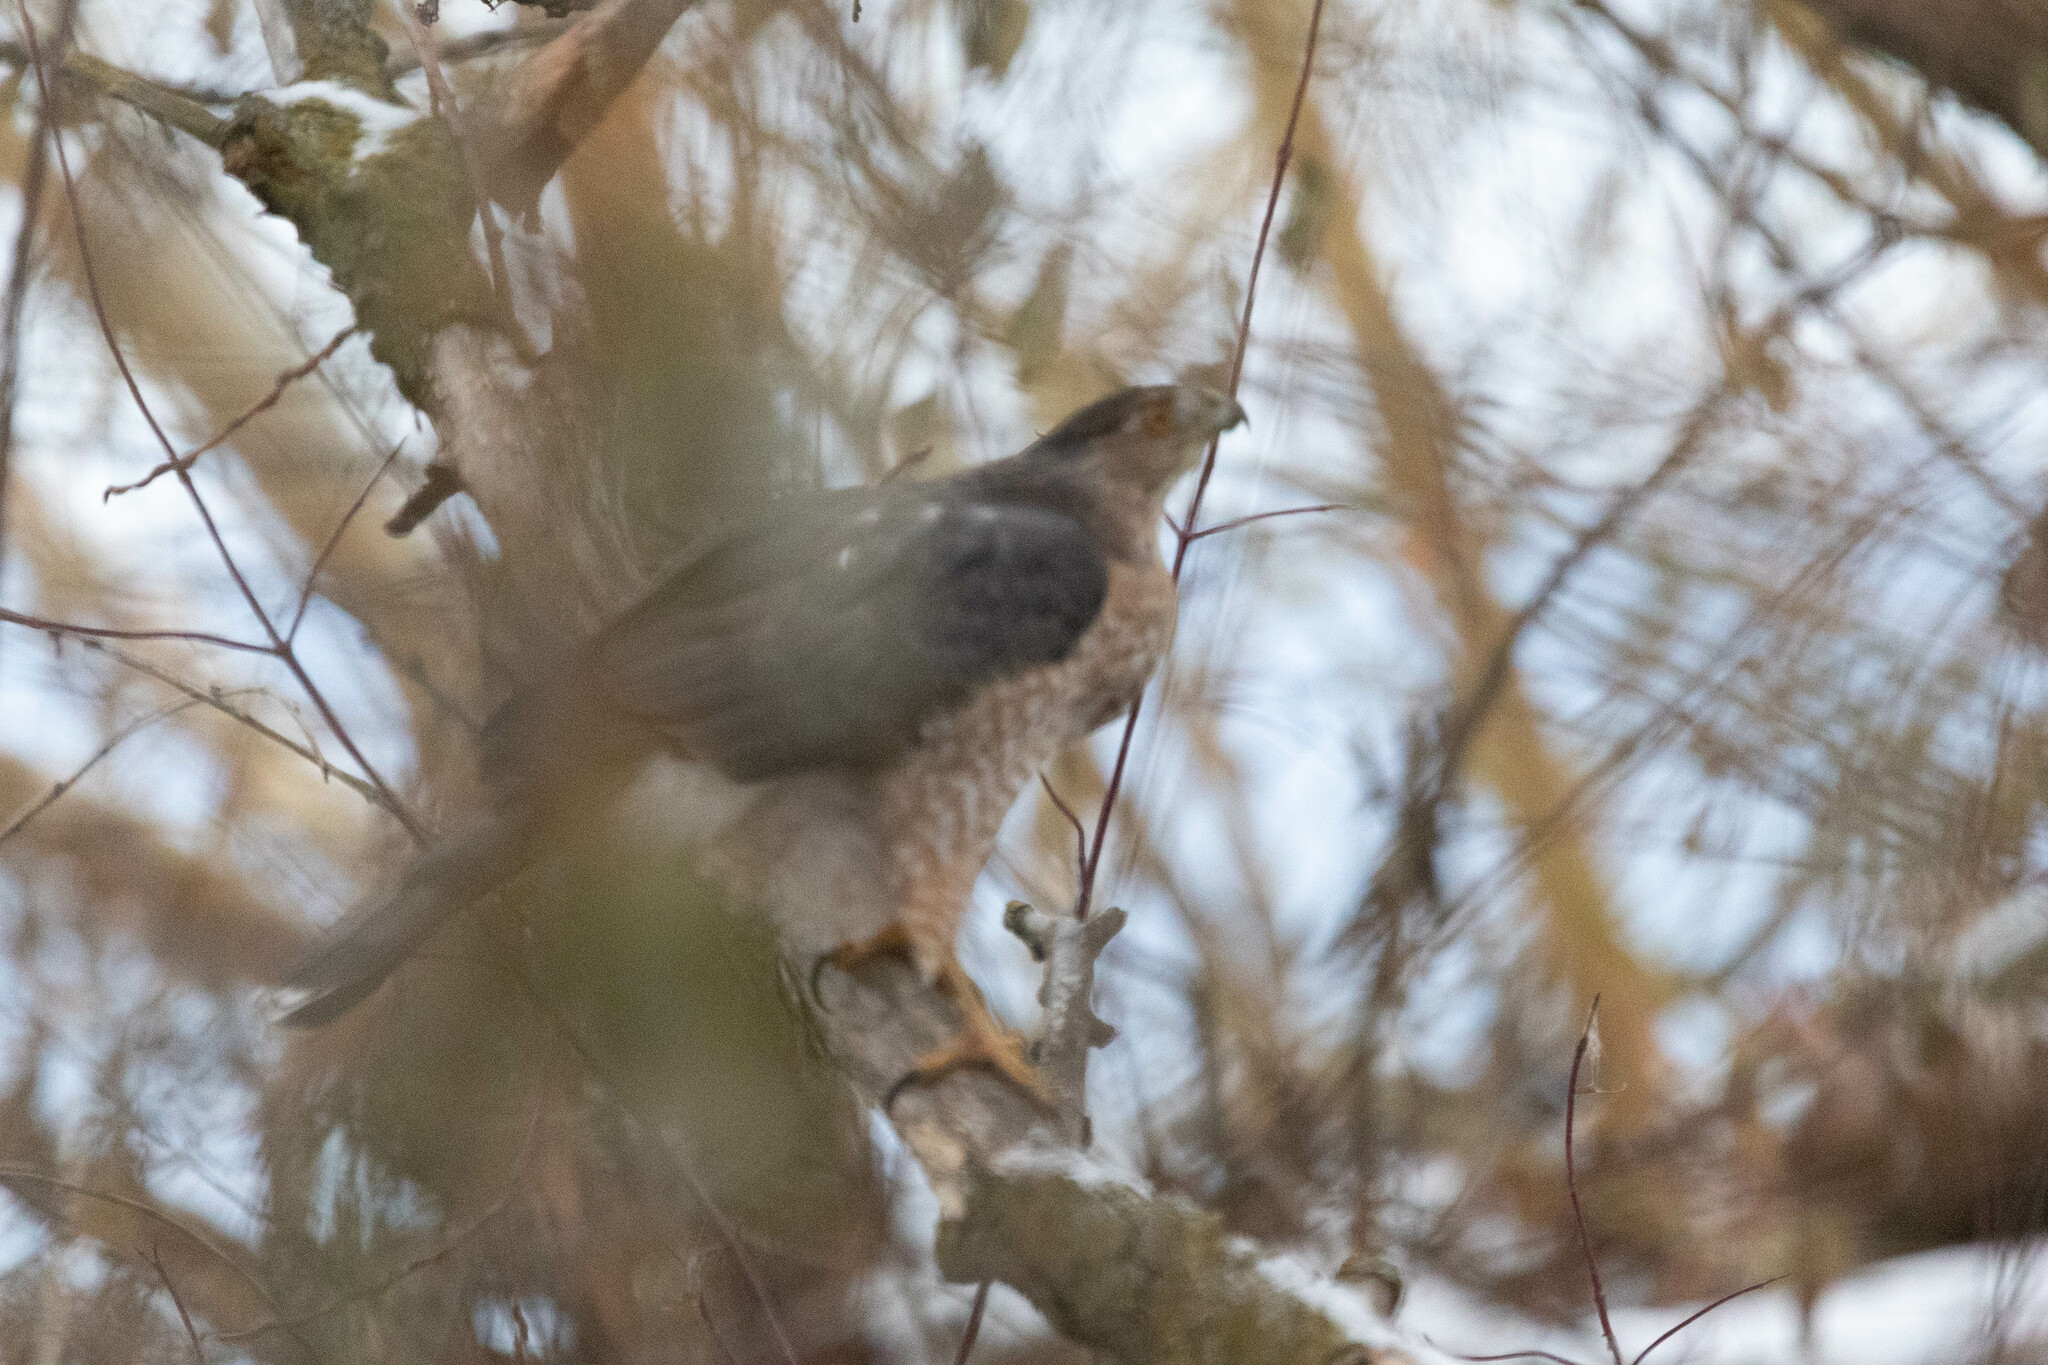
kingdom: Animalia
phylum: Chordata
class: Aves
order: Accipitriformes
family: Accipitridae
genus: Accipiter
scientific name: Accipiter cooperii
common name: Cooper's hawk
